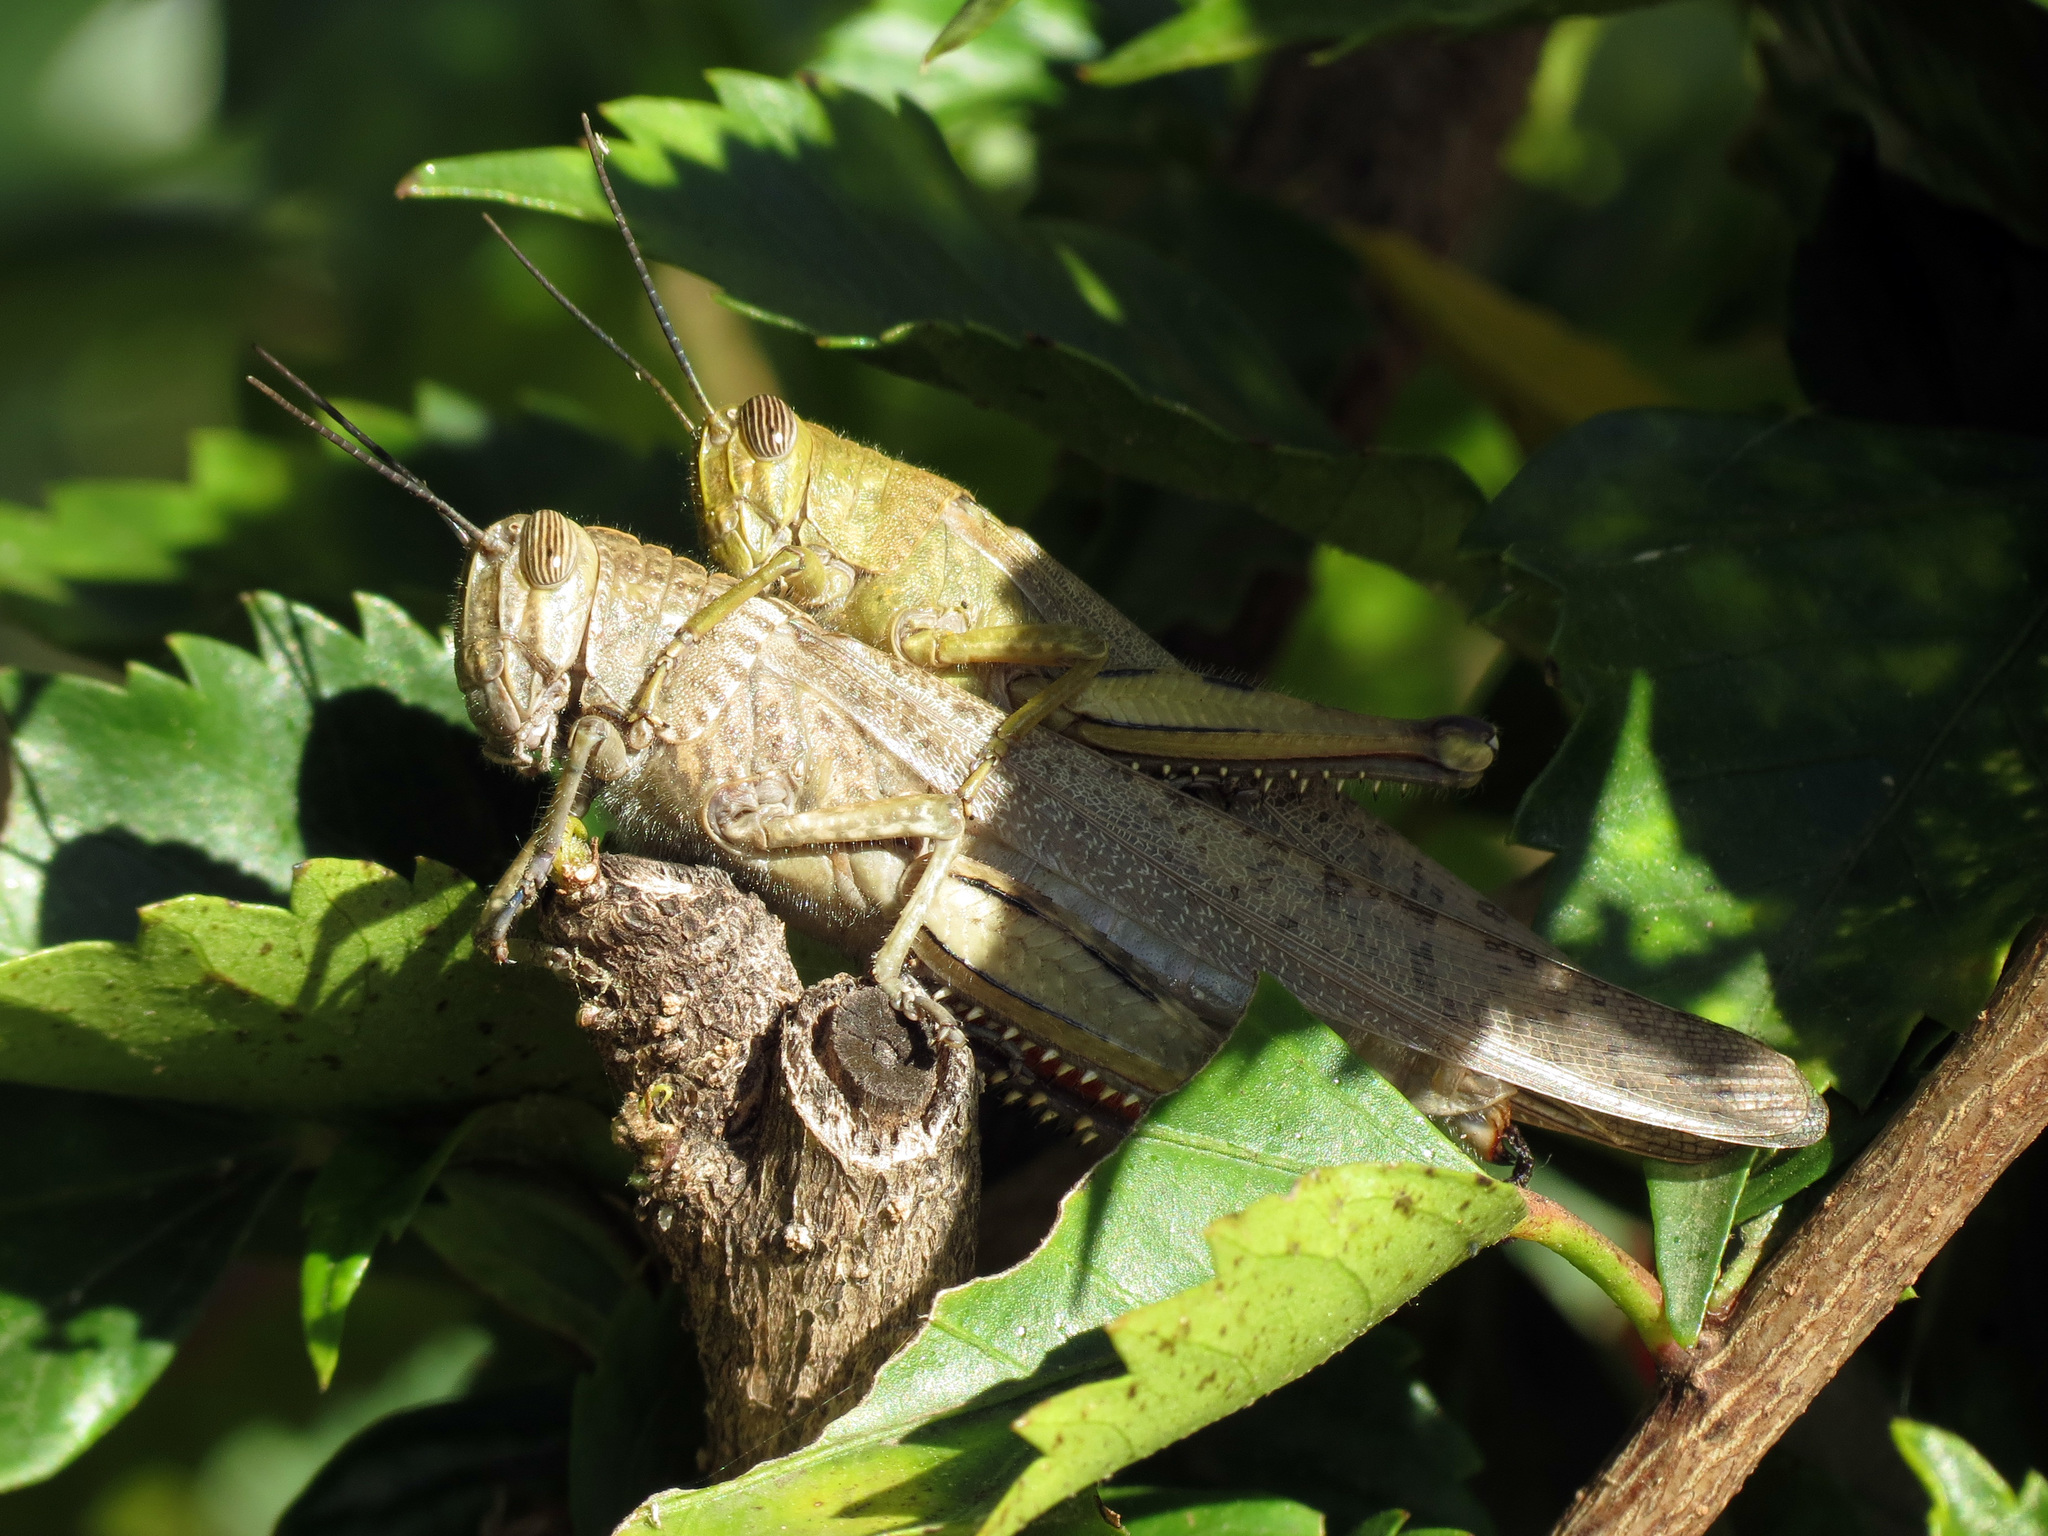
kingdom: Animalia
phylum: Arthropoda
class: Insecta
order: Orthoptera
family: Acrididae
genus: Anacridium
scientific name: Anacridium aegyptium
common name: Egyptian grasshopper
